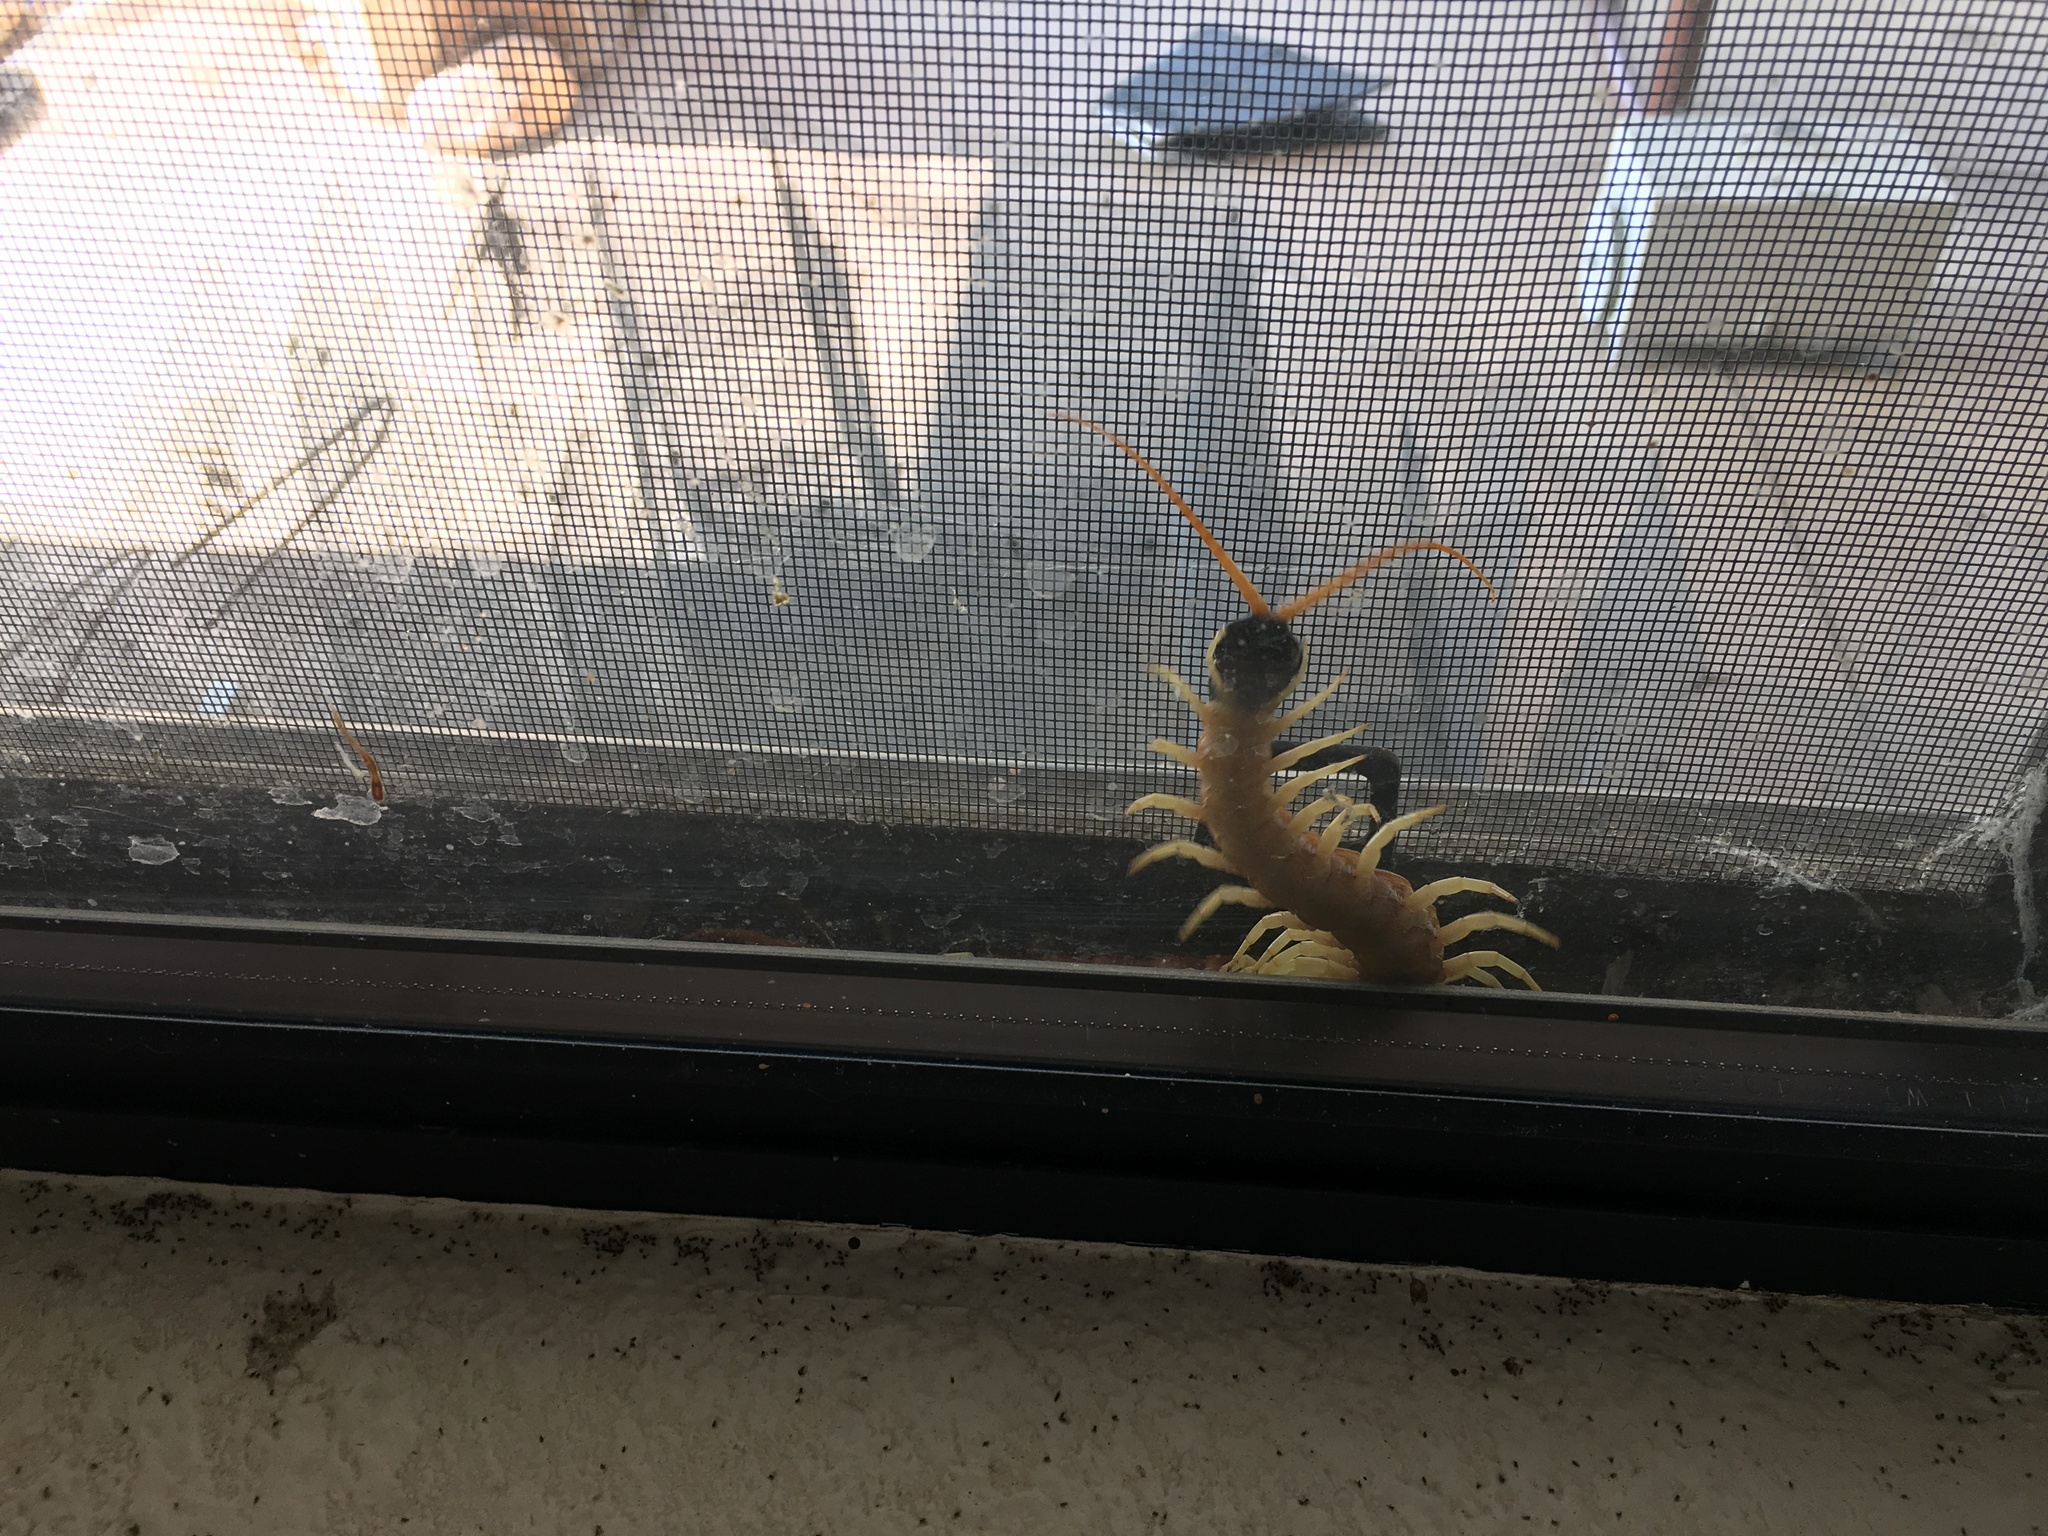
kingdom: Animalia
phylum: Arthropoda
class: Chilopoda
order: Scolopendromorpha
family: Scolopendridae
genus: Scolopendra
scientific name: Scolopendra heros
